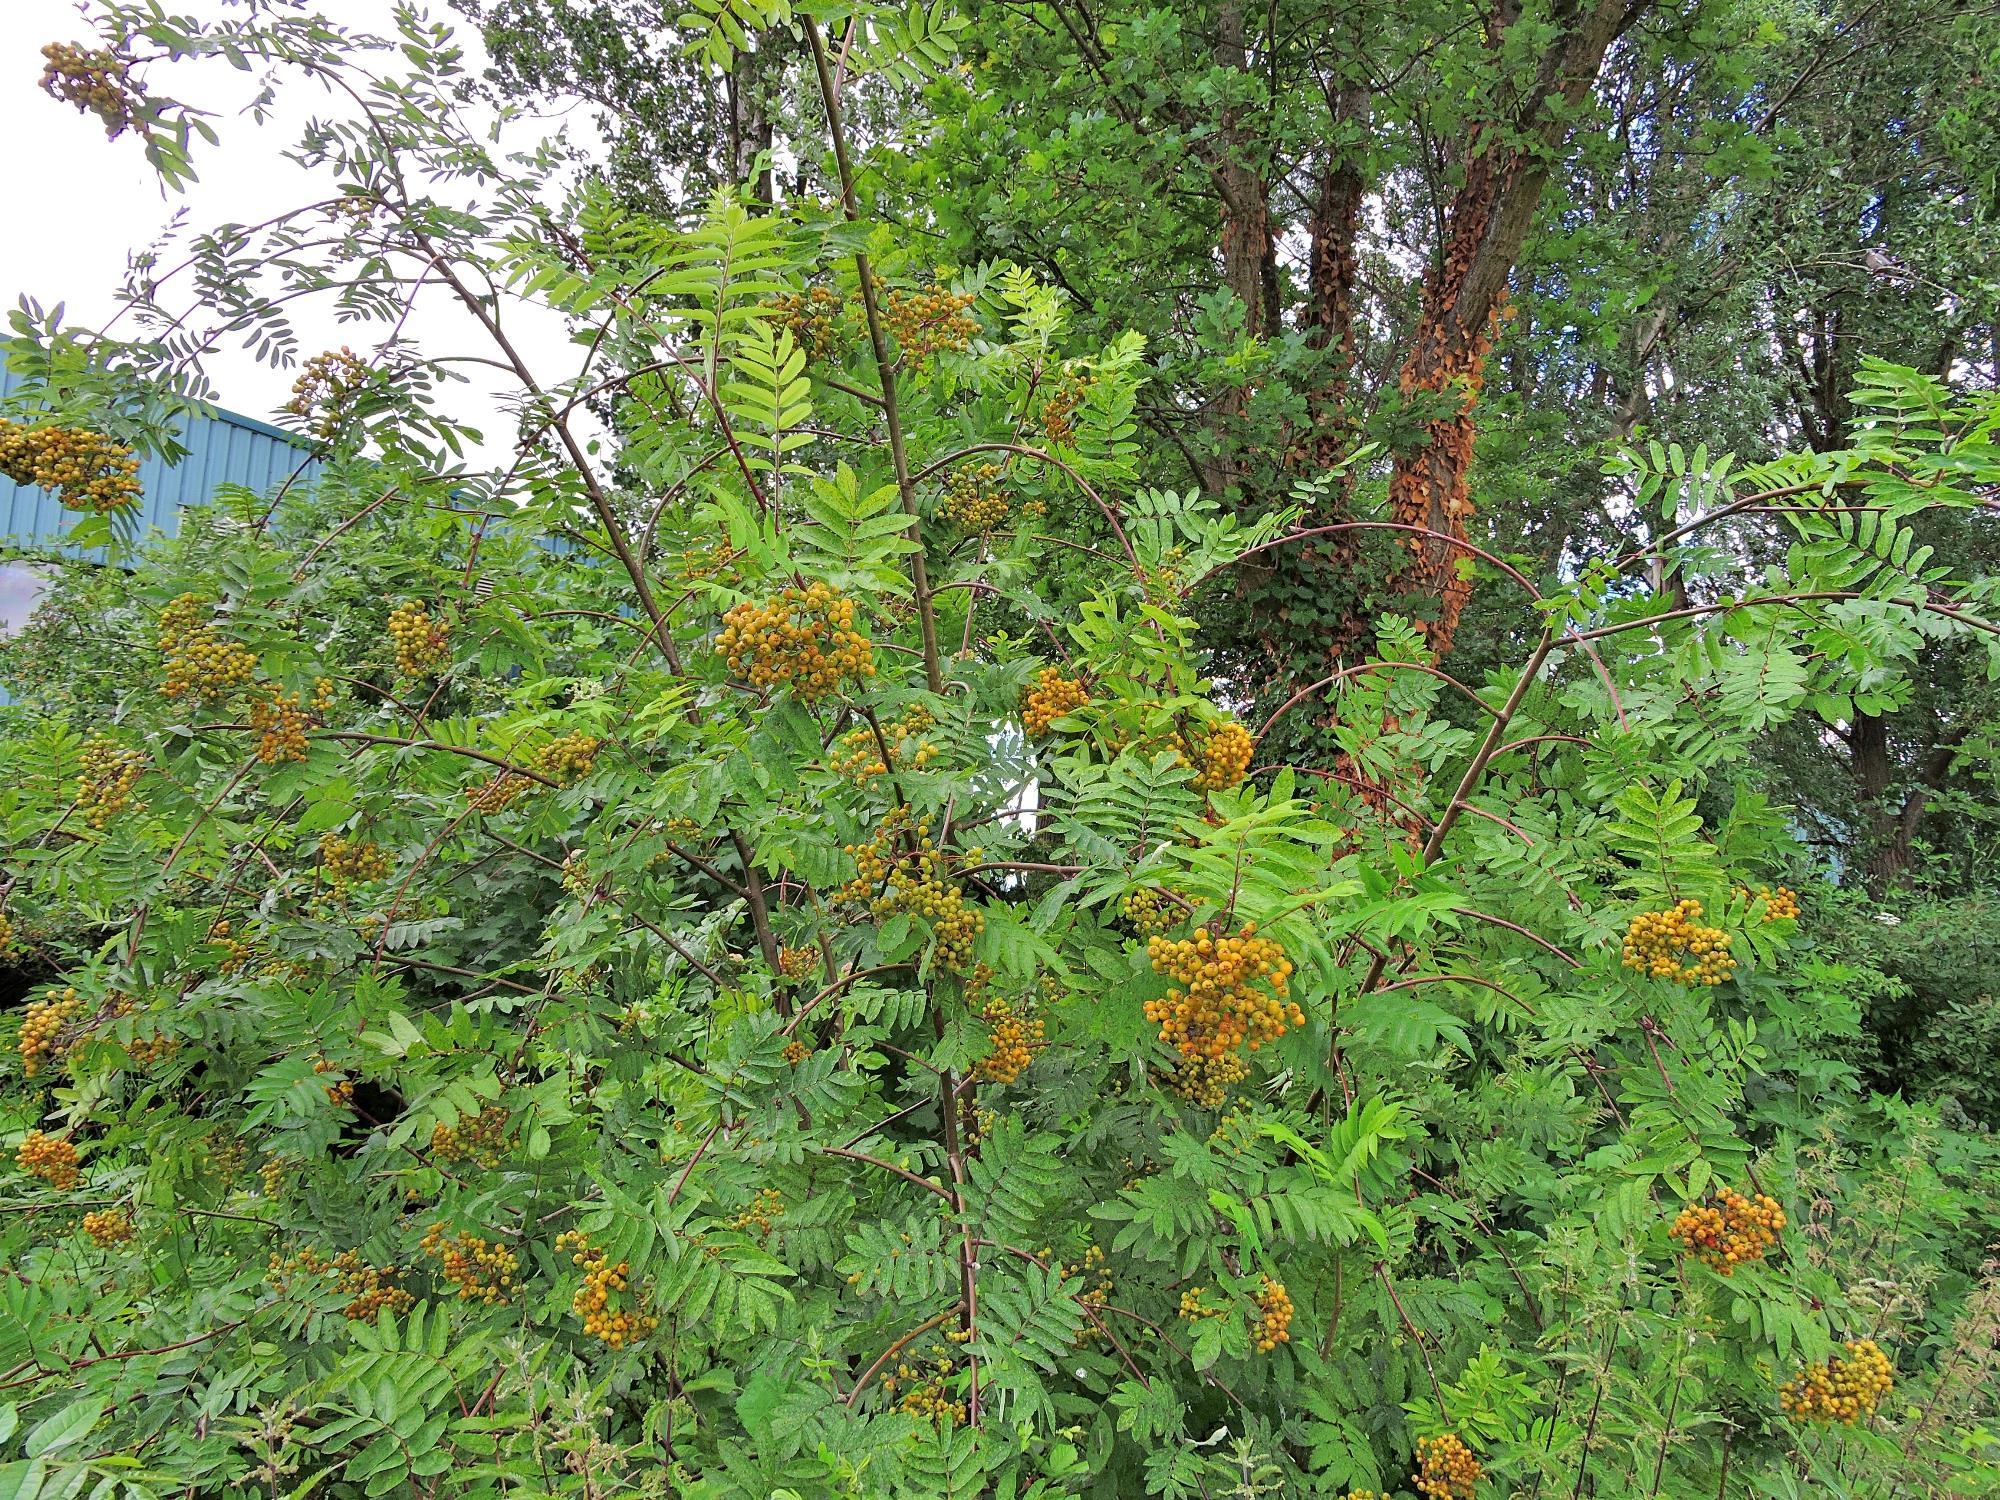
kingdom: Plantae
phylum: Tracheophyta
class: Magnoliopsida
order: Rosales
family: Rosaceae
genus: Sorbus
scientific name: Sorbus aucuparia
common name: Rowan
